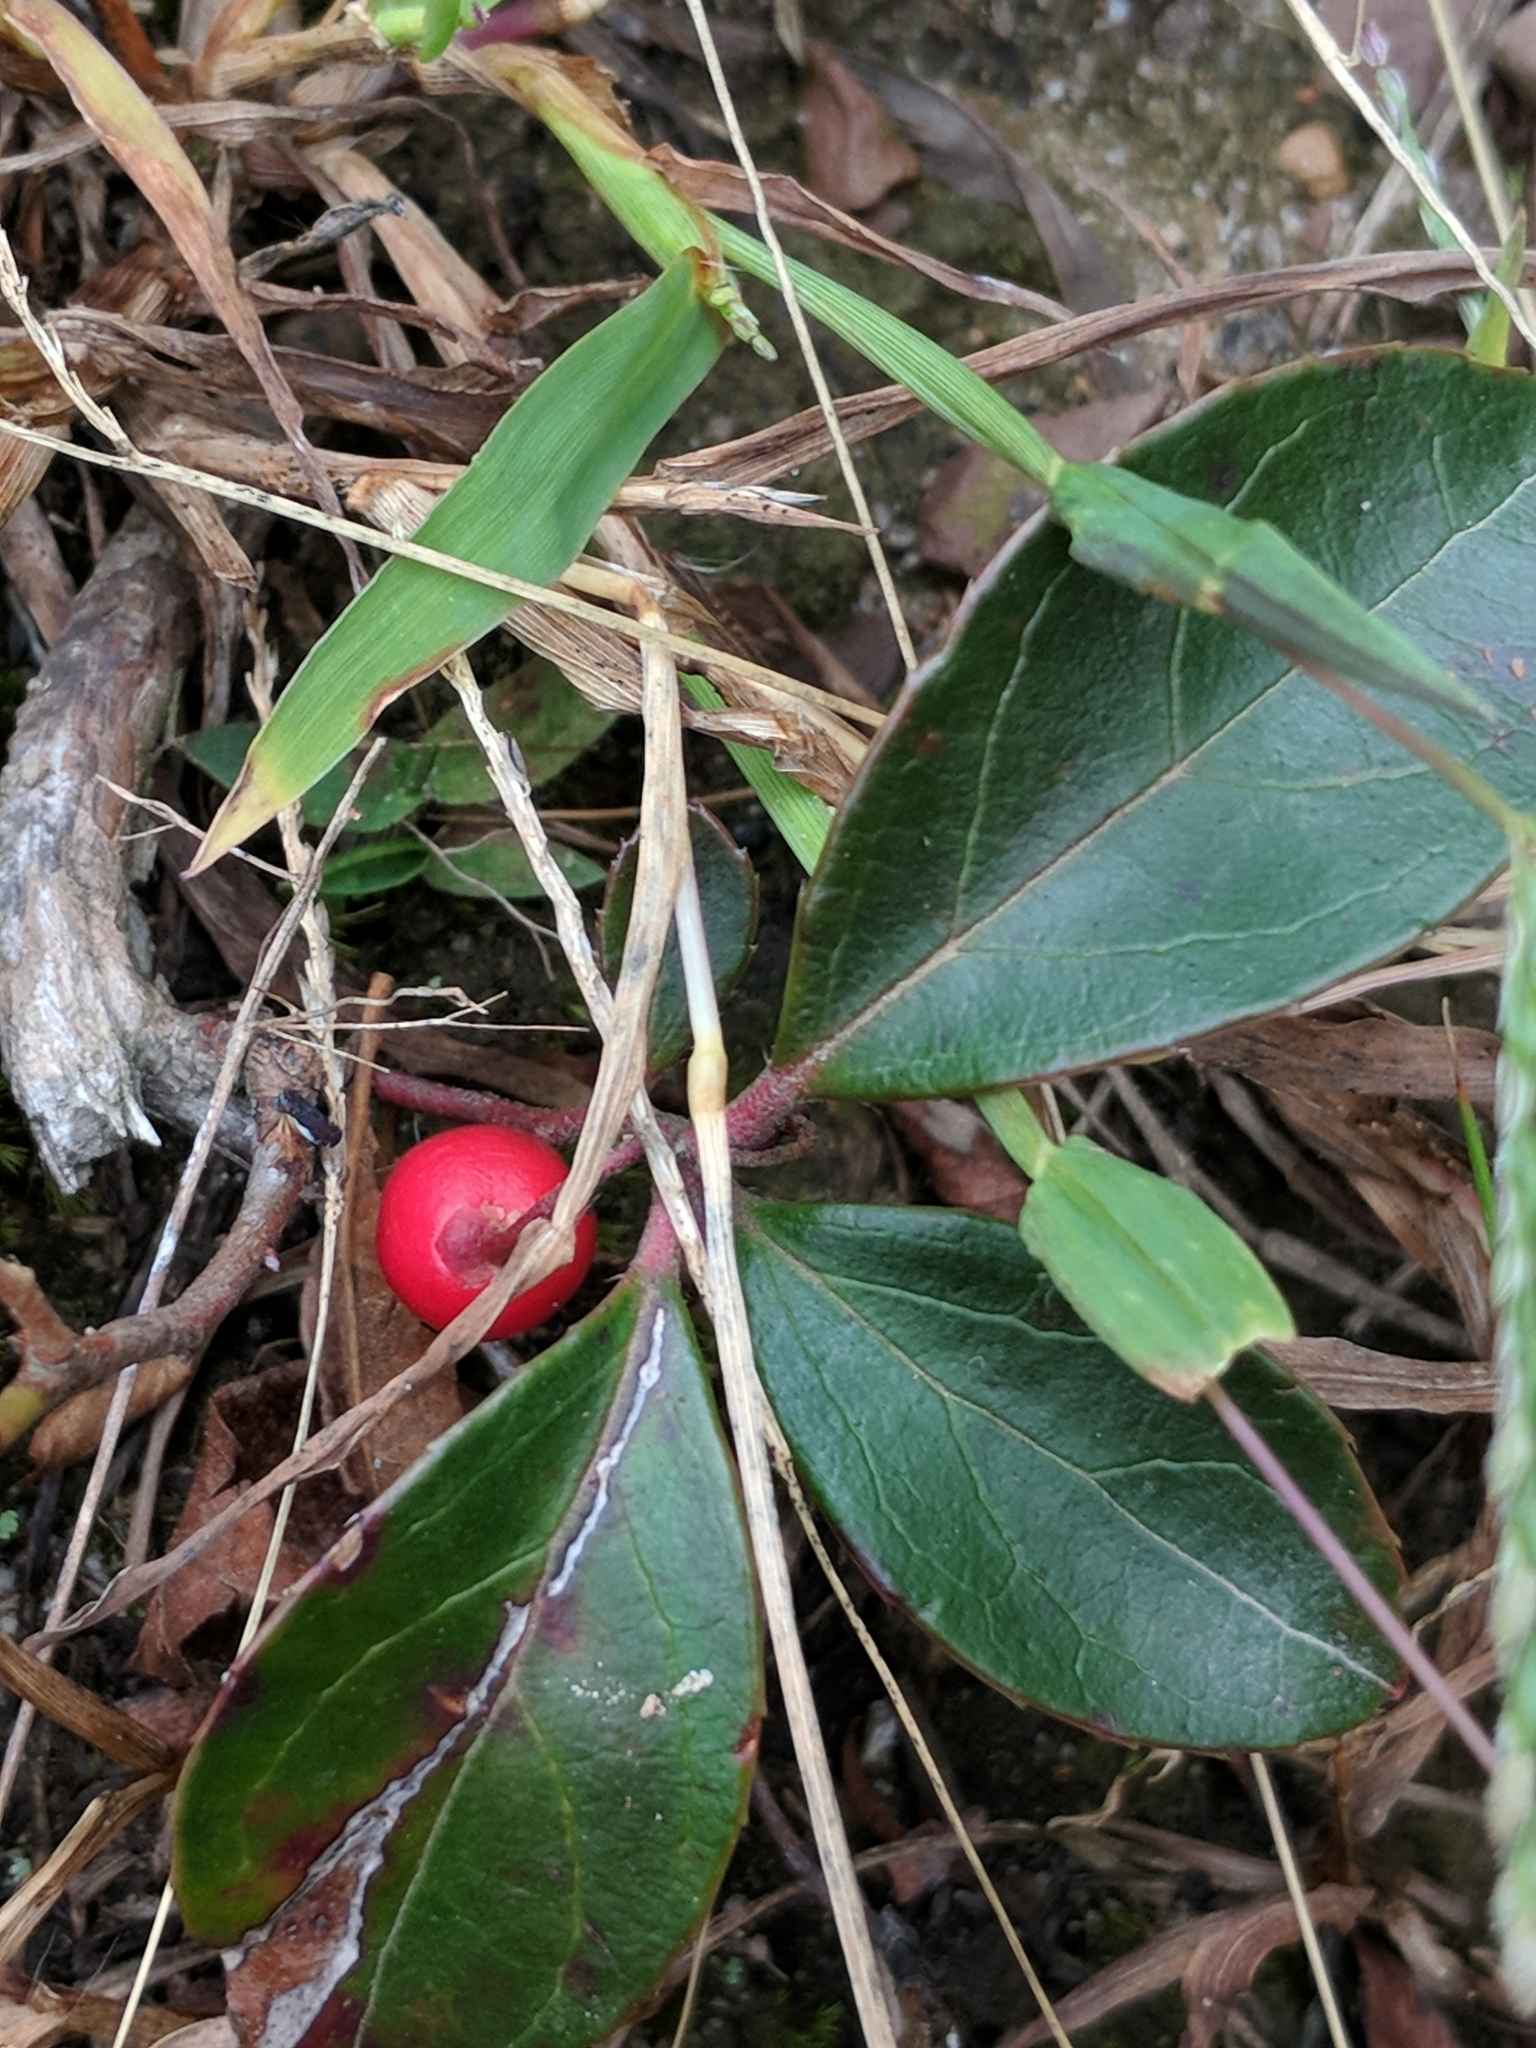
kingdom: Plantae
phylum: Tracheophyta
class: Magnoliopsida
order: Ericales
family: Ericaceae
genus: Gaultheria
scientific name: Gaultheria procumbens
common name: Checkerberry
